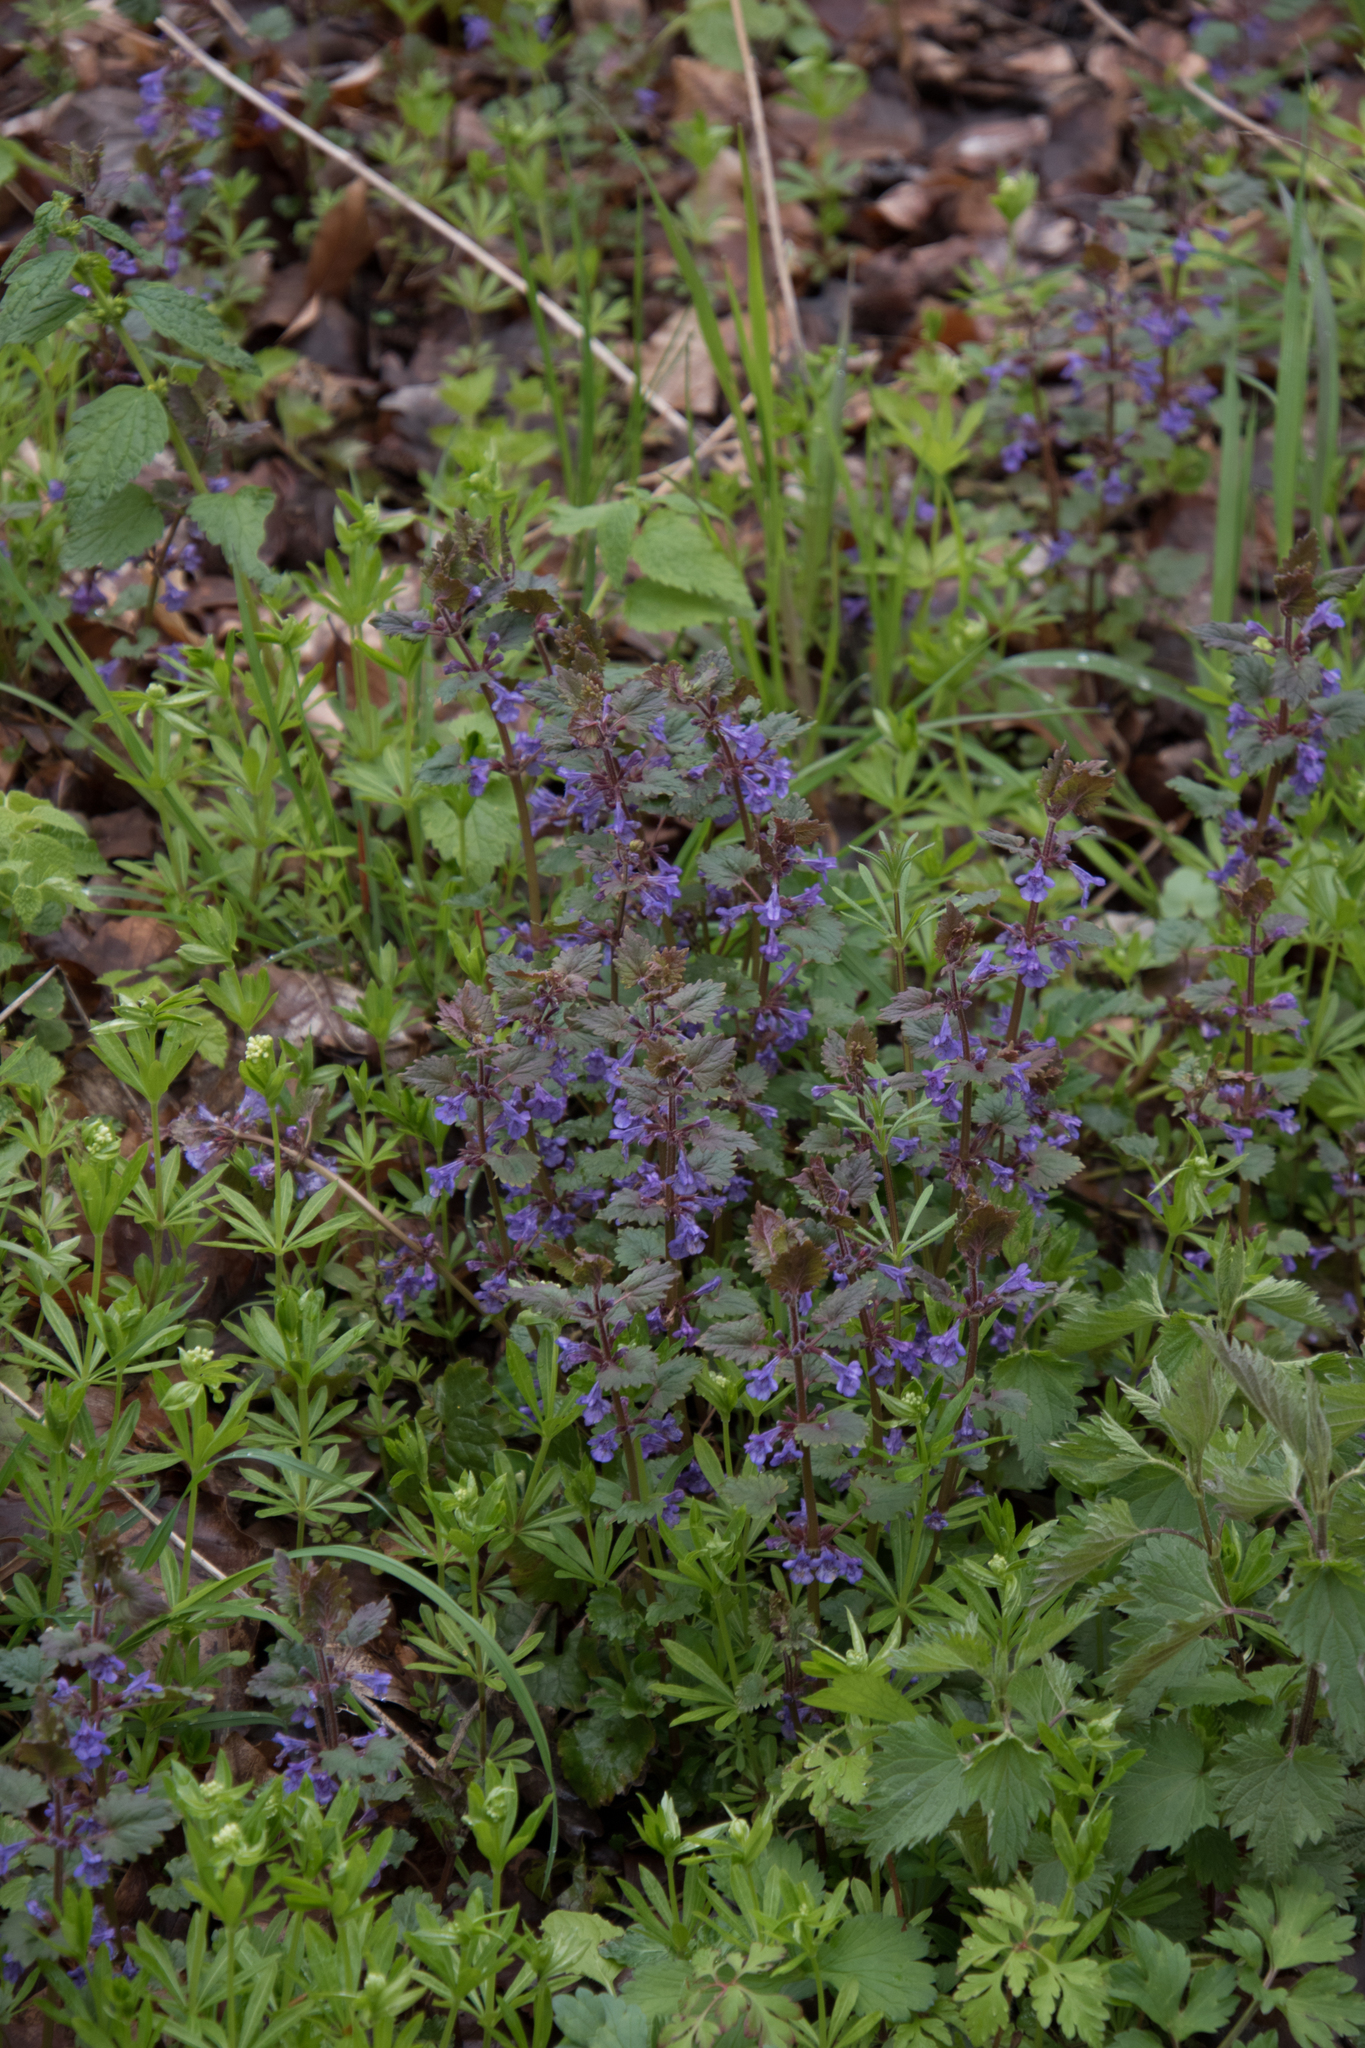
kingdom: Plantae
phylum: Tracheophyta
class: Magnoliopsida
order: Lamiales
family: Lamiaceae
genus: Glechoma
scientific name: Glechoma hederacea
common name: Ground ivy
